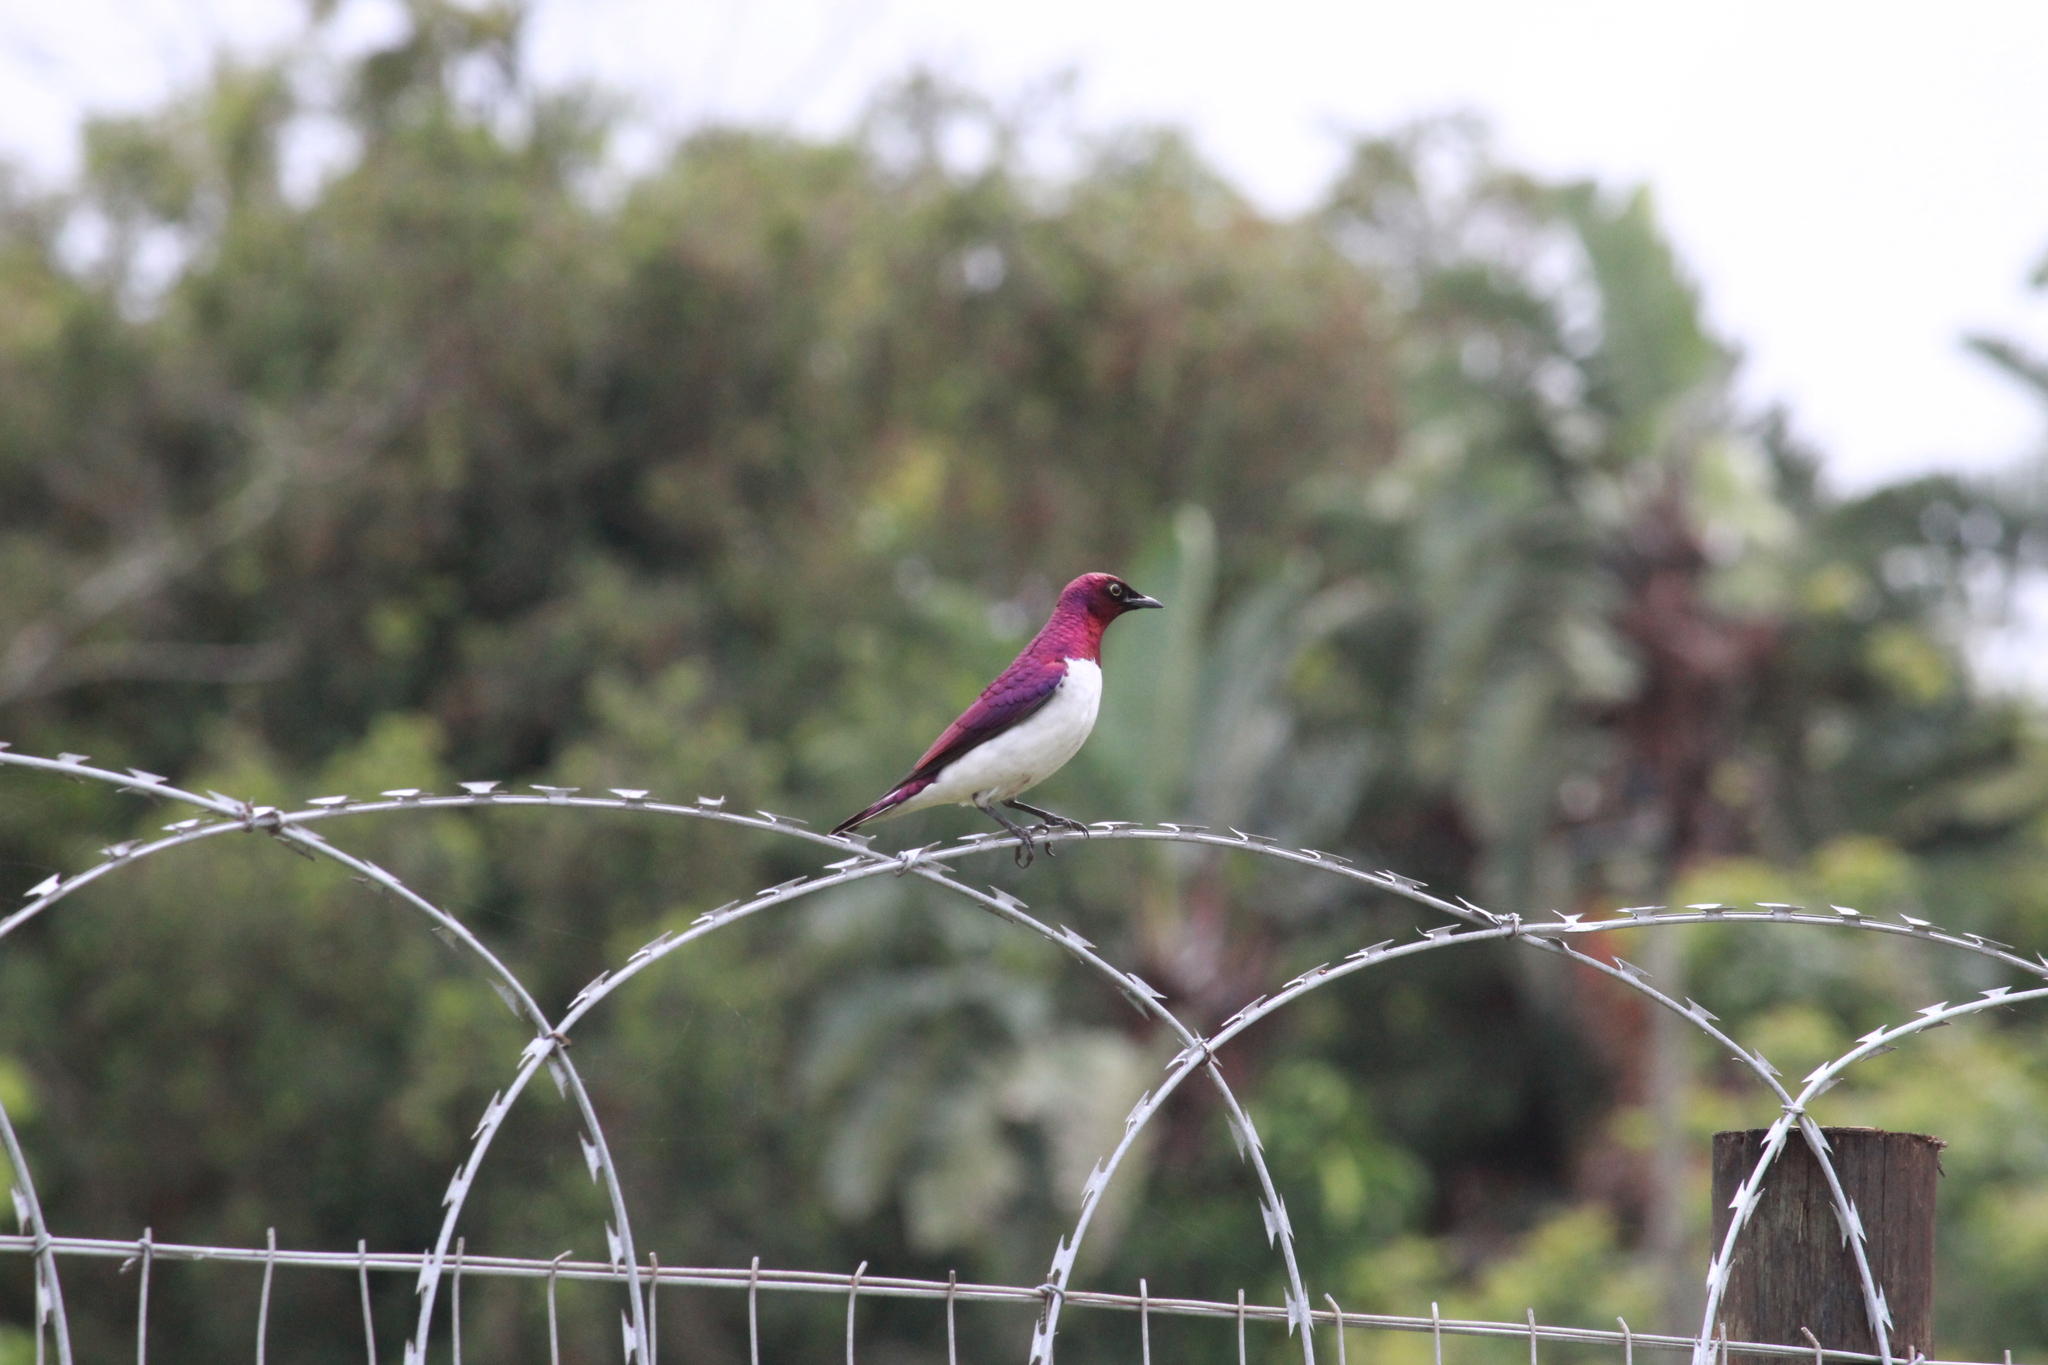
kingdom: Animalia
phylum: Chordata
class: Aves
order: Passeriformes
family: Sturnidae
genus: Cinnyricinclus
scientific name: Cinnyricinclus leucogaster
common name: Violet-backed starling
